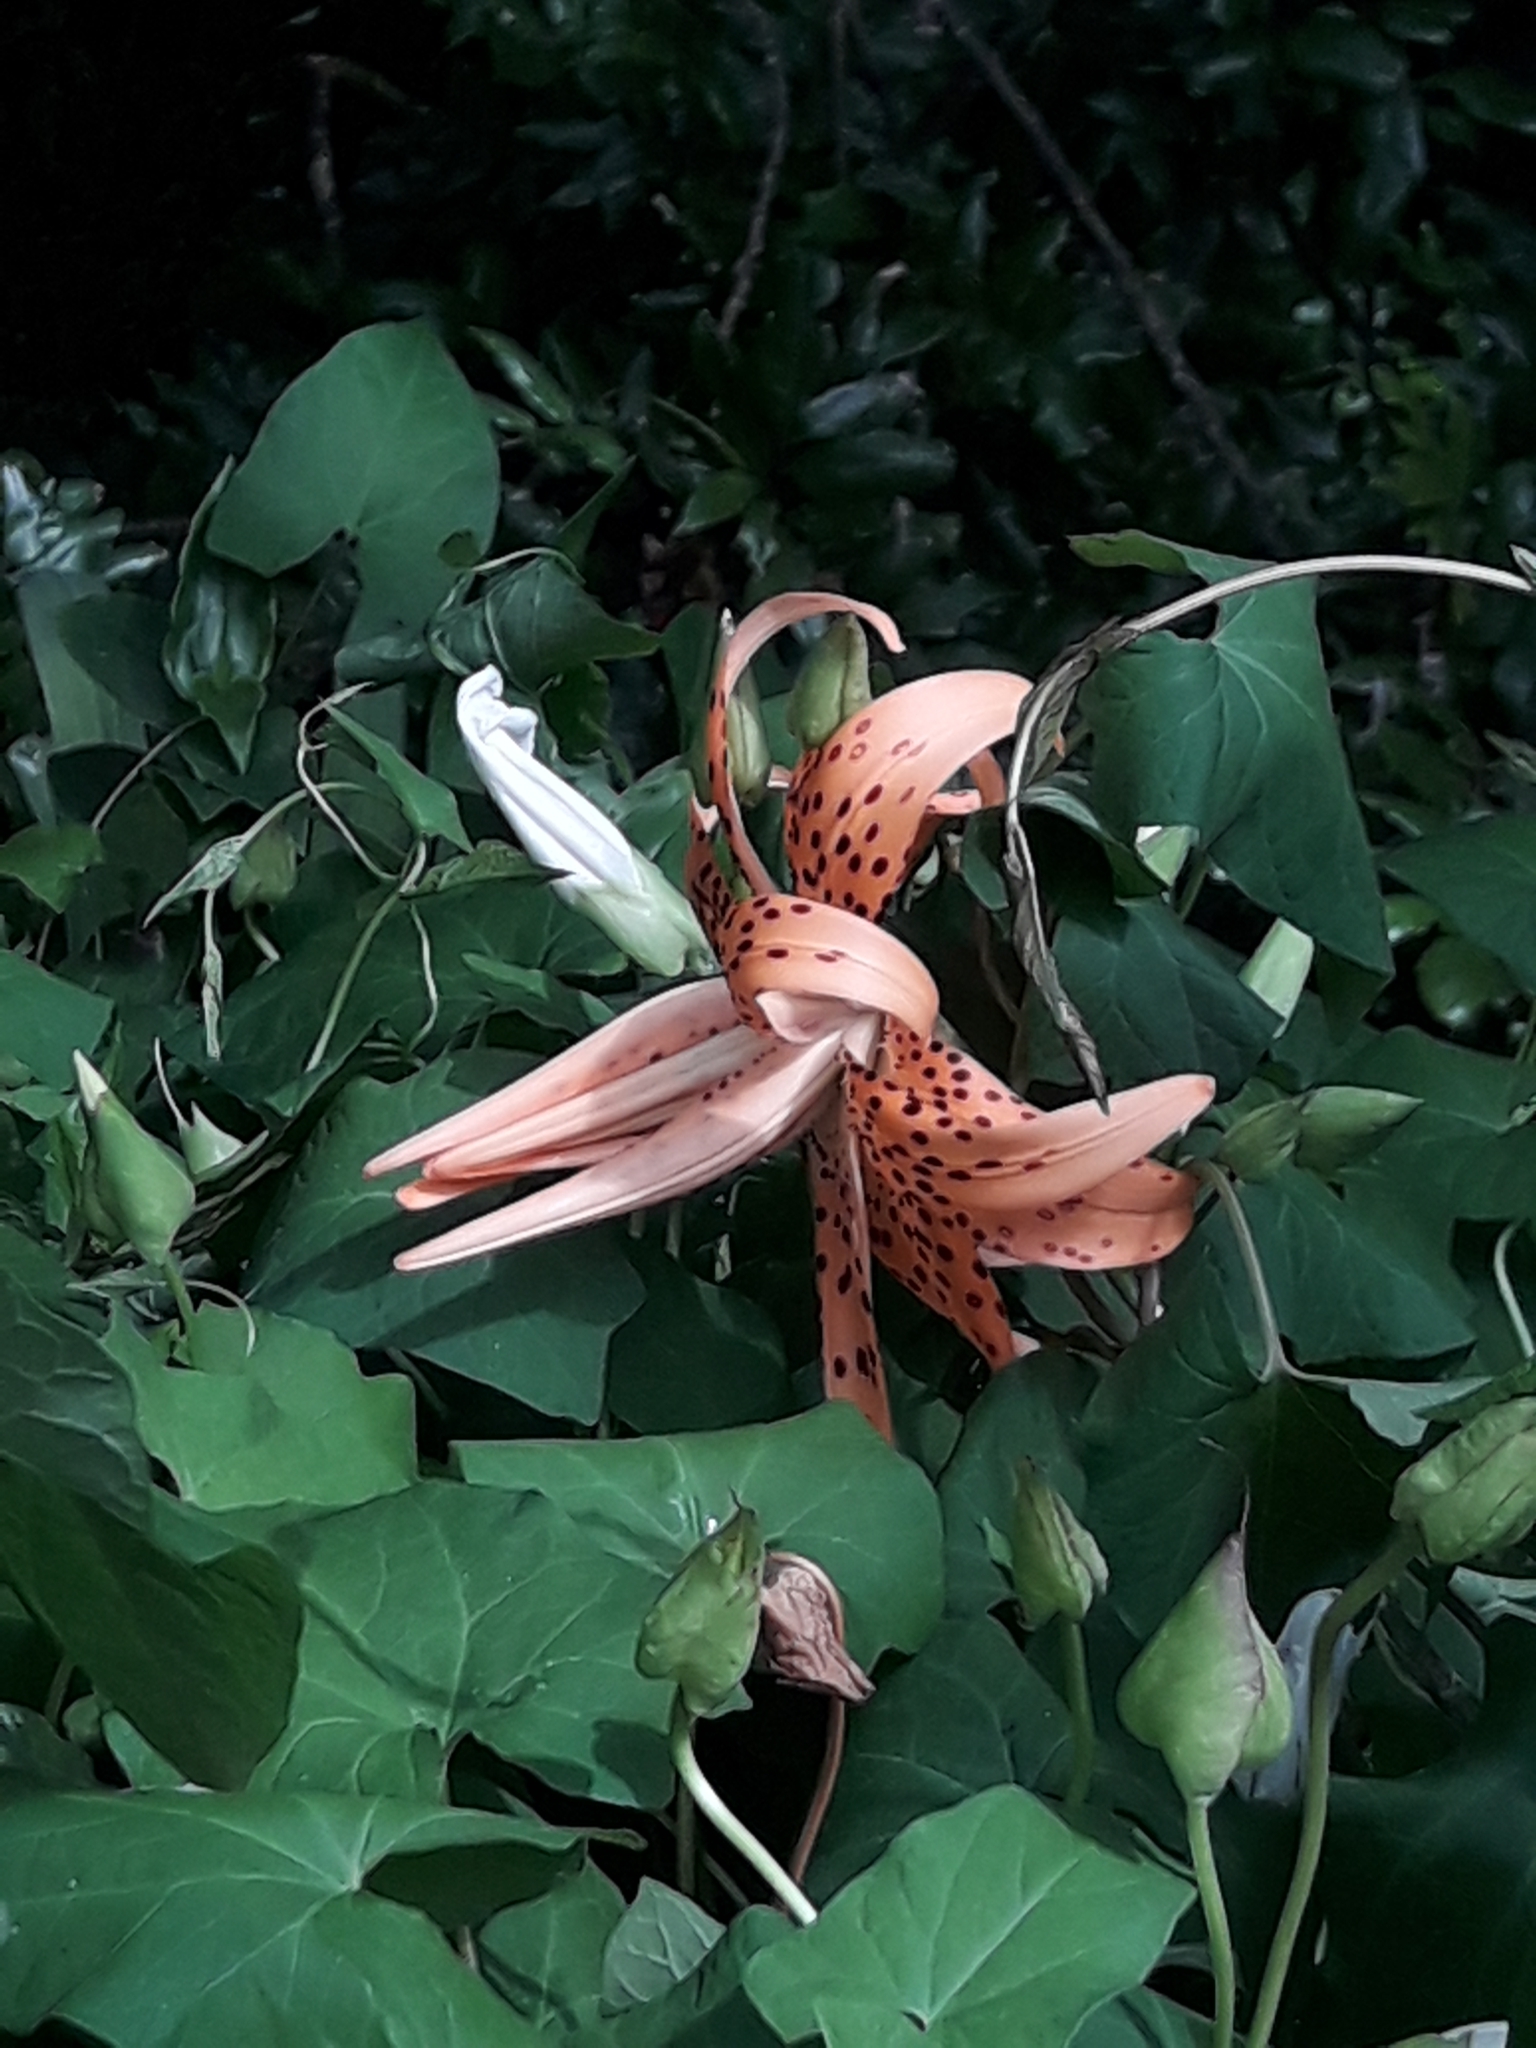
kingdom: Plantae
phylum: Tracheophyta
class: Liliopsida
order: Liliales
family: Liliaceae
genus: Lilium
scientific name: Lilium lancifolium
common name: Tiger lily
